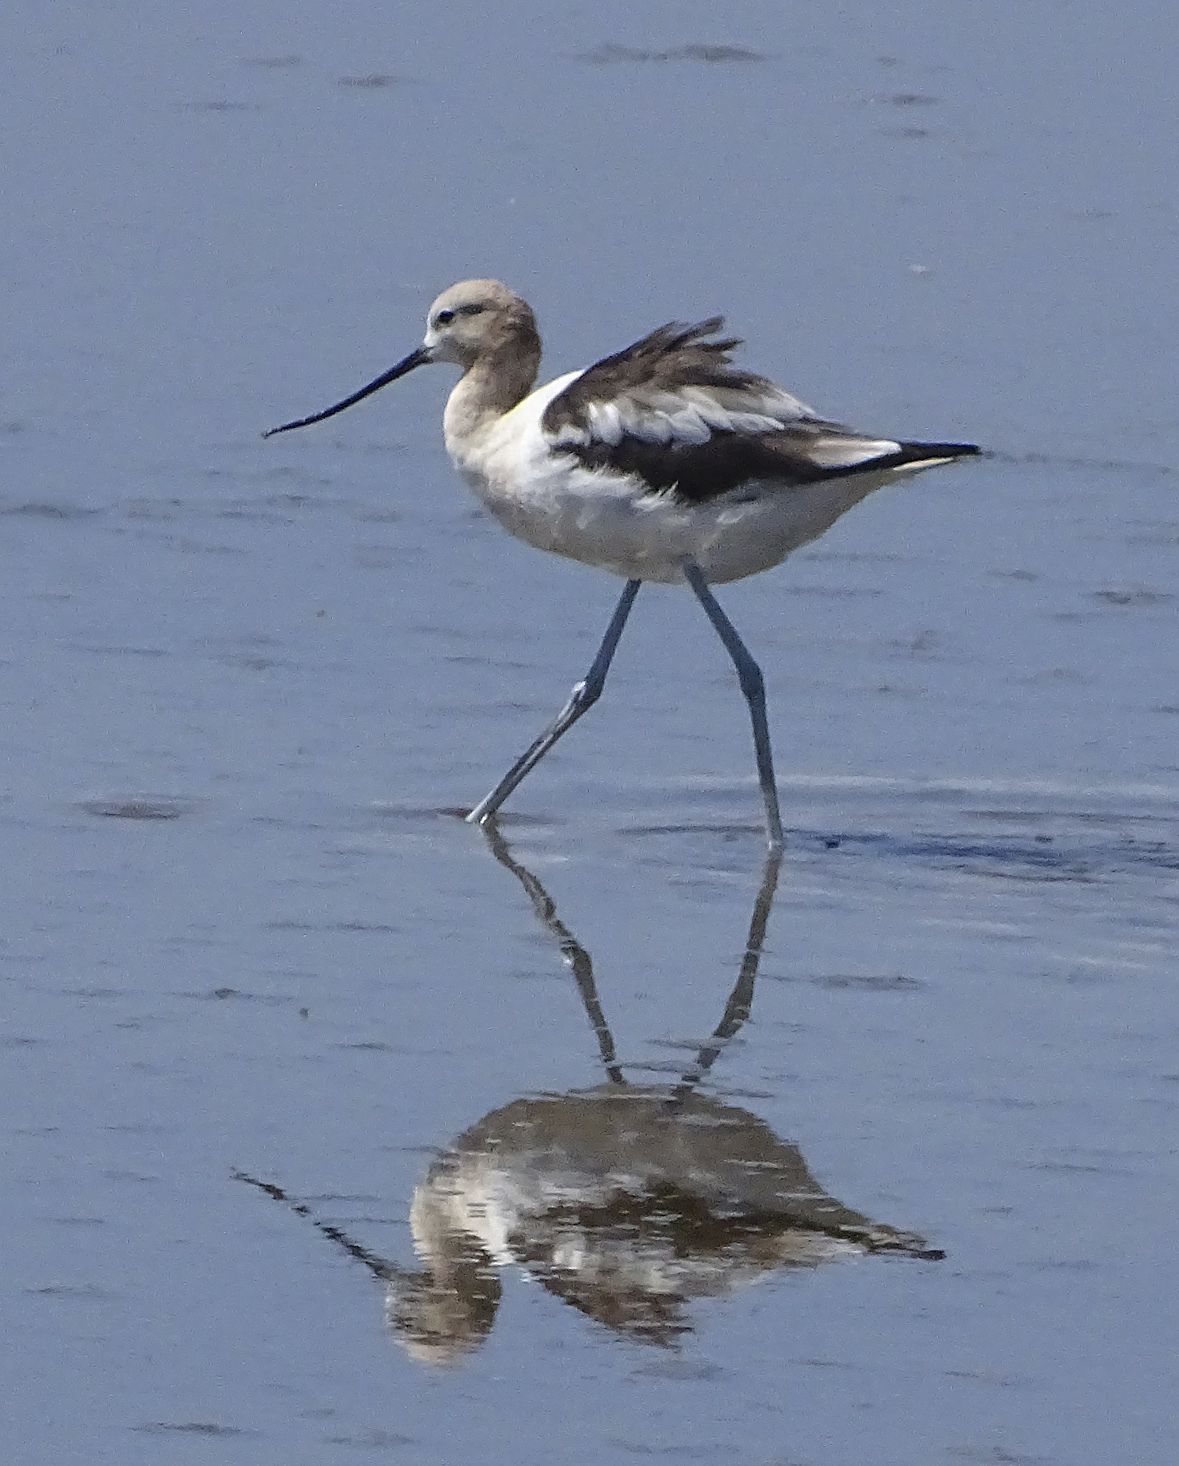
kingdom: Animalia
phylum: Chordata
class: Aves
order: Charadriiformes
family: Recurvirostridae
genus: Recurvirostra
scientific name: Recurvirostra americana
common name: American avocet
